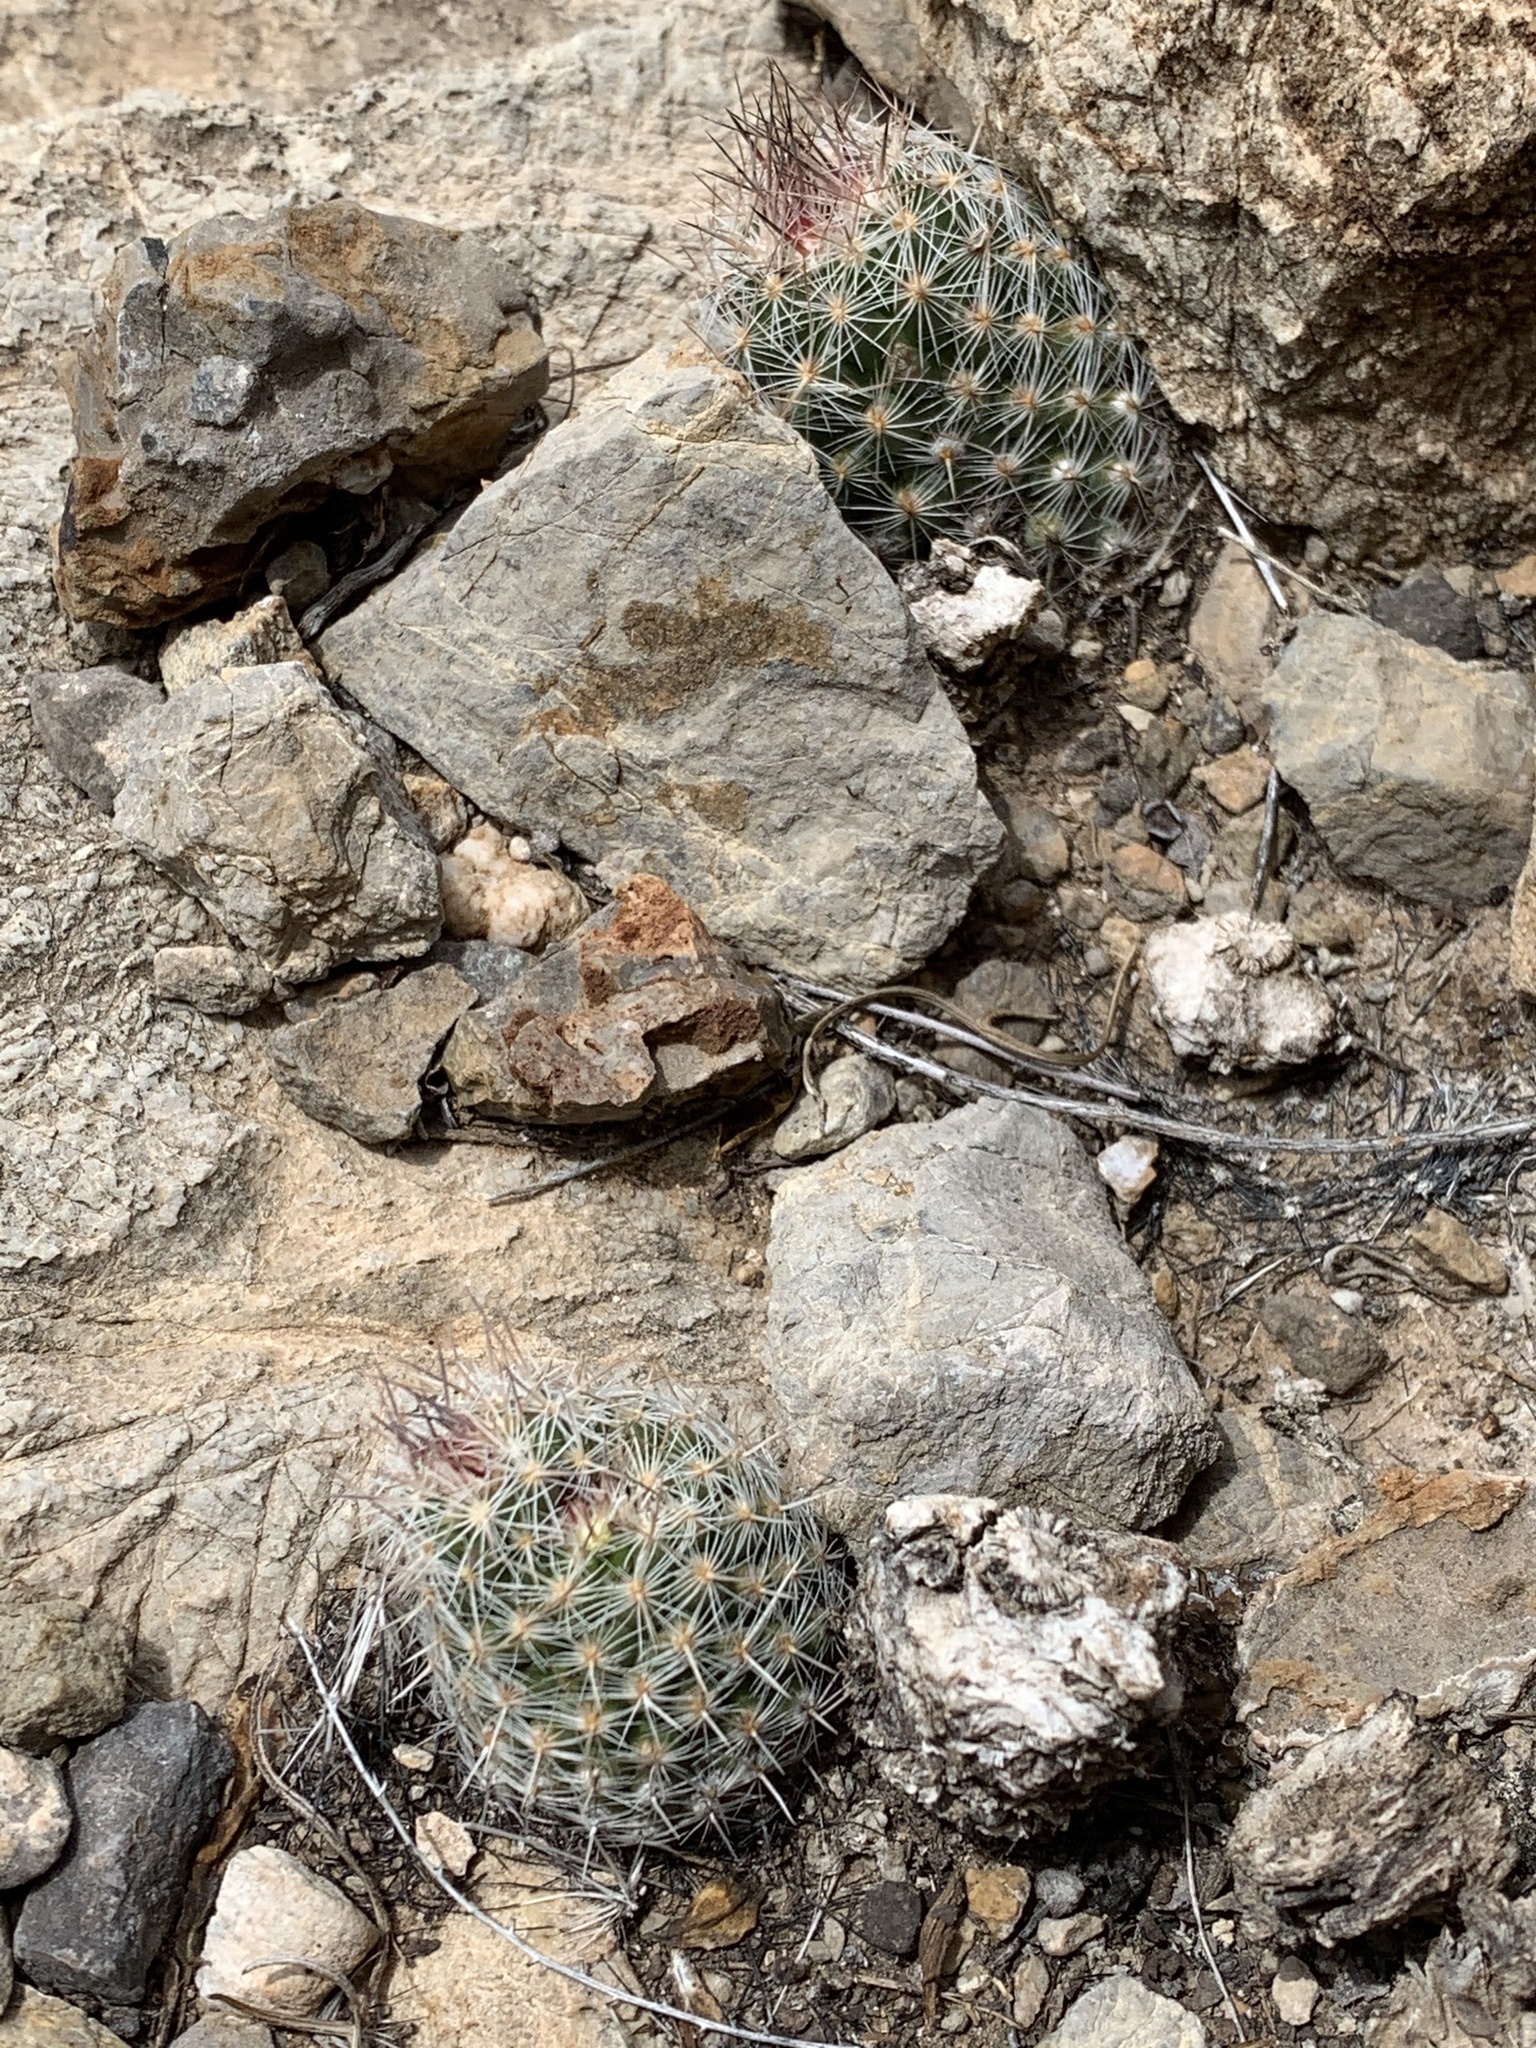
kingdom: Plantae
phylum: Tracheophyta
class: Magnoliopsida
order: Caryophyllales
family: Cactaceae
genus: Pelecyphora
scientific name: Pelecyphora tuberculosa
